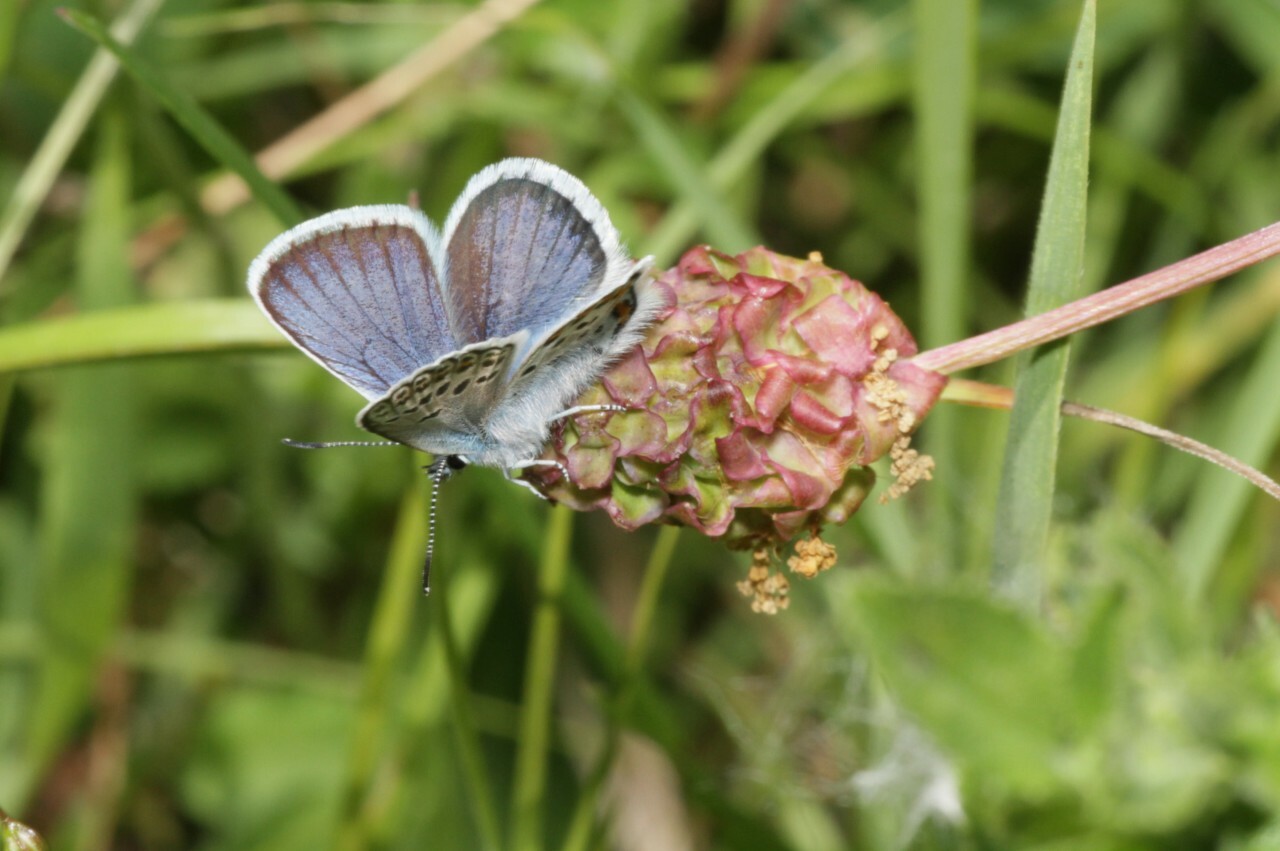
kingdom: Animalia
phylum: Arthropoda
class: Insecta
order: Lepidoptera
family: Lycaenidae
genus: Plebejus
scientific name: Plebejus argus
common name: Silver-studded blue
